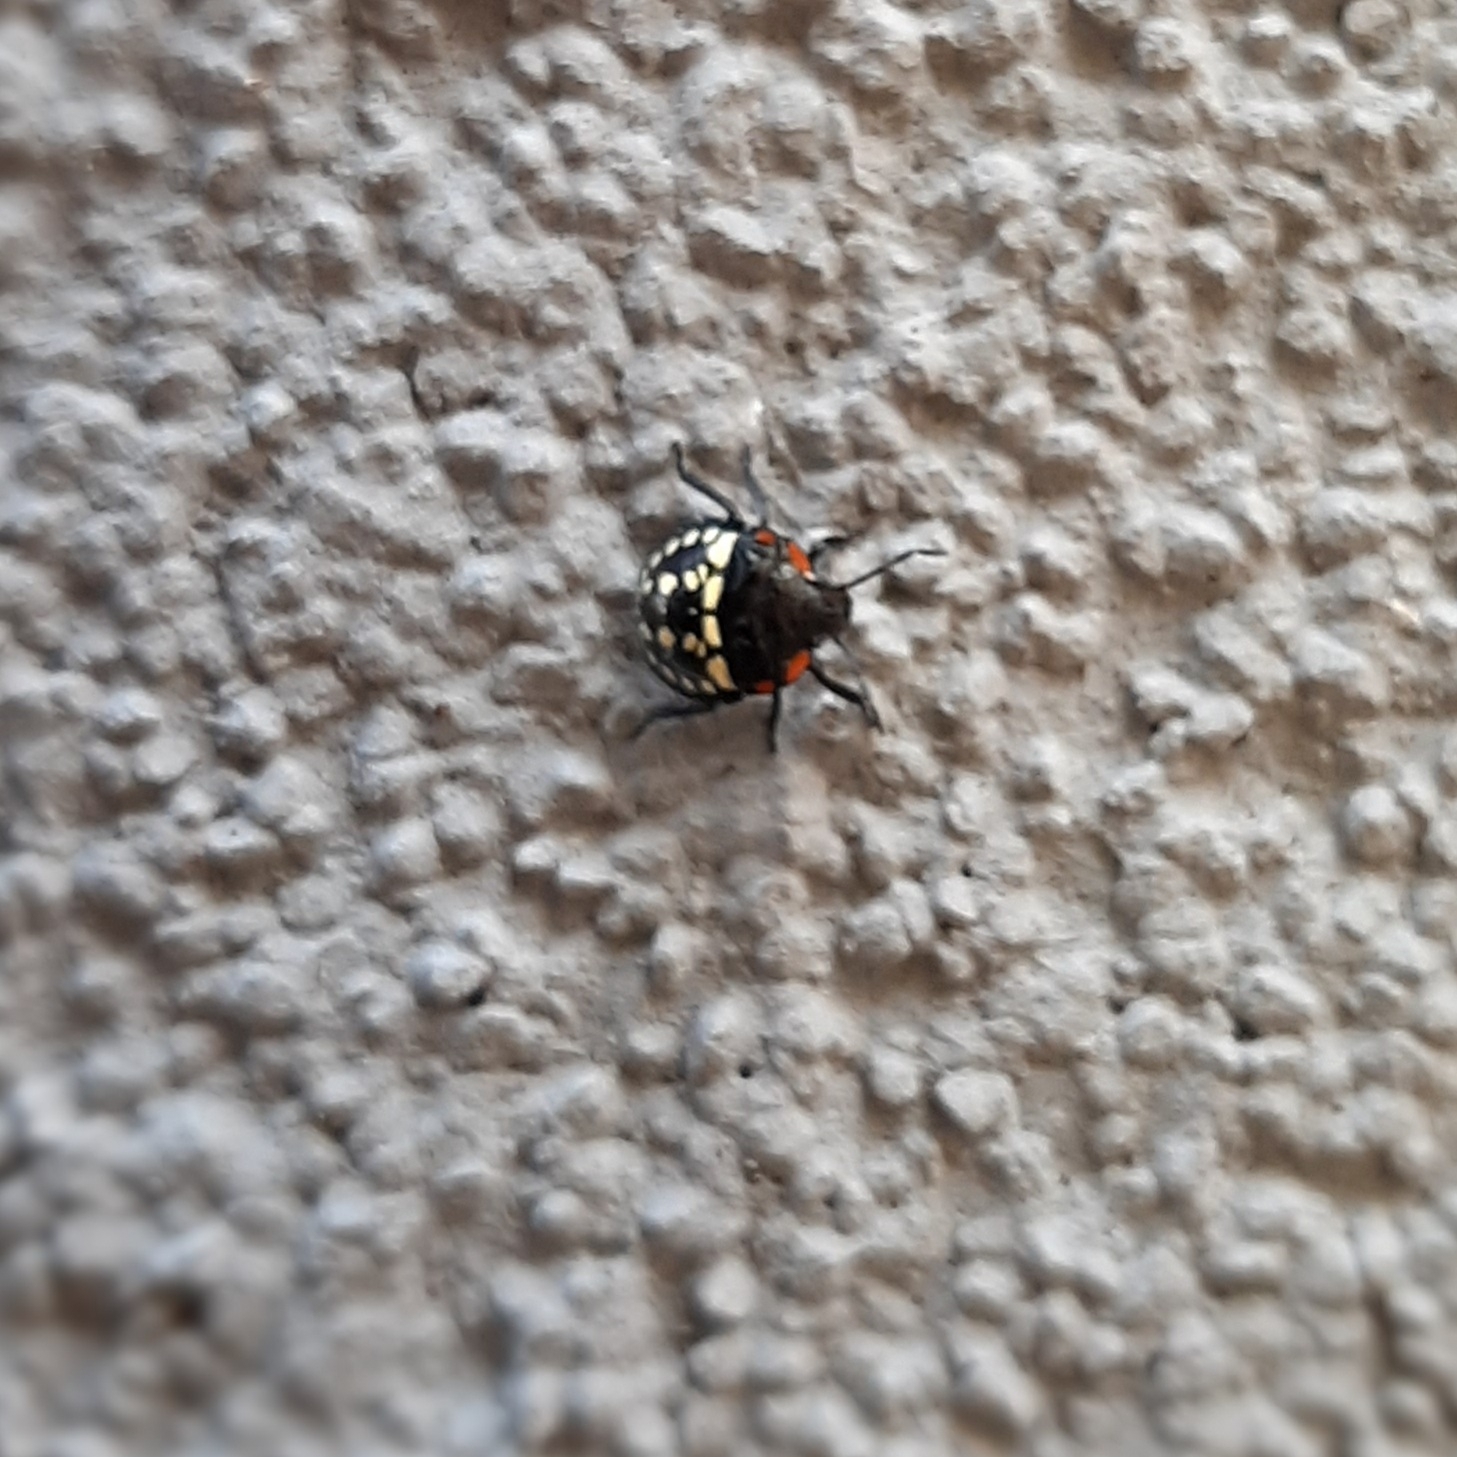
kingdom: Animalia
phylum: Arthropoda
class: Insecta
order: Hemiptera
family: Pentatomidae
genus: Nezara
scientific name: Nezara viridula
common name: Southern green stink bug
